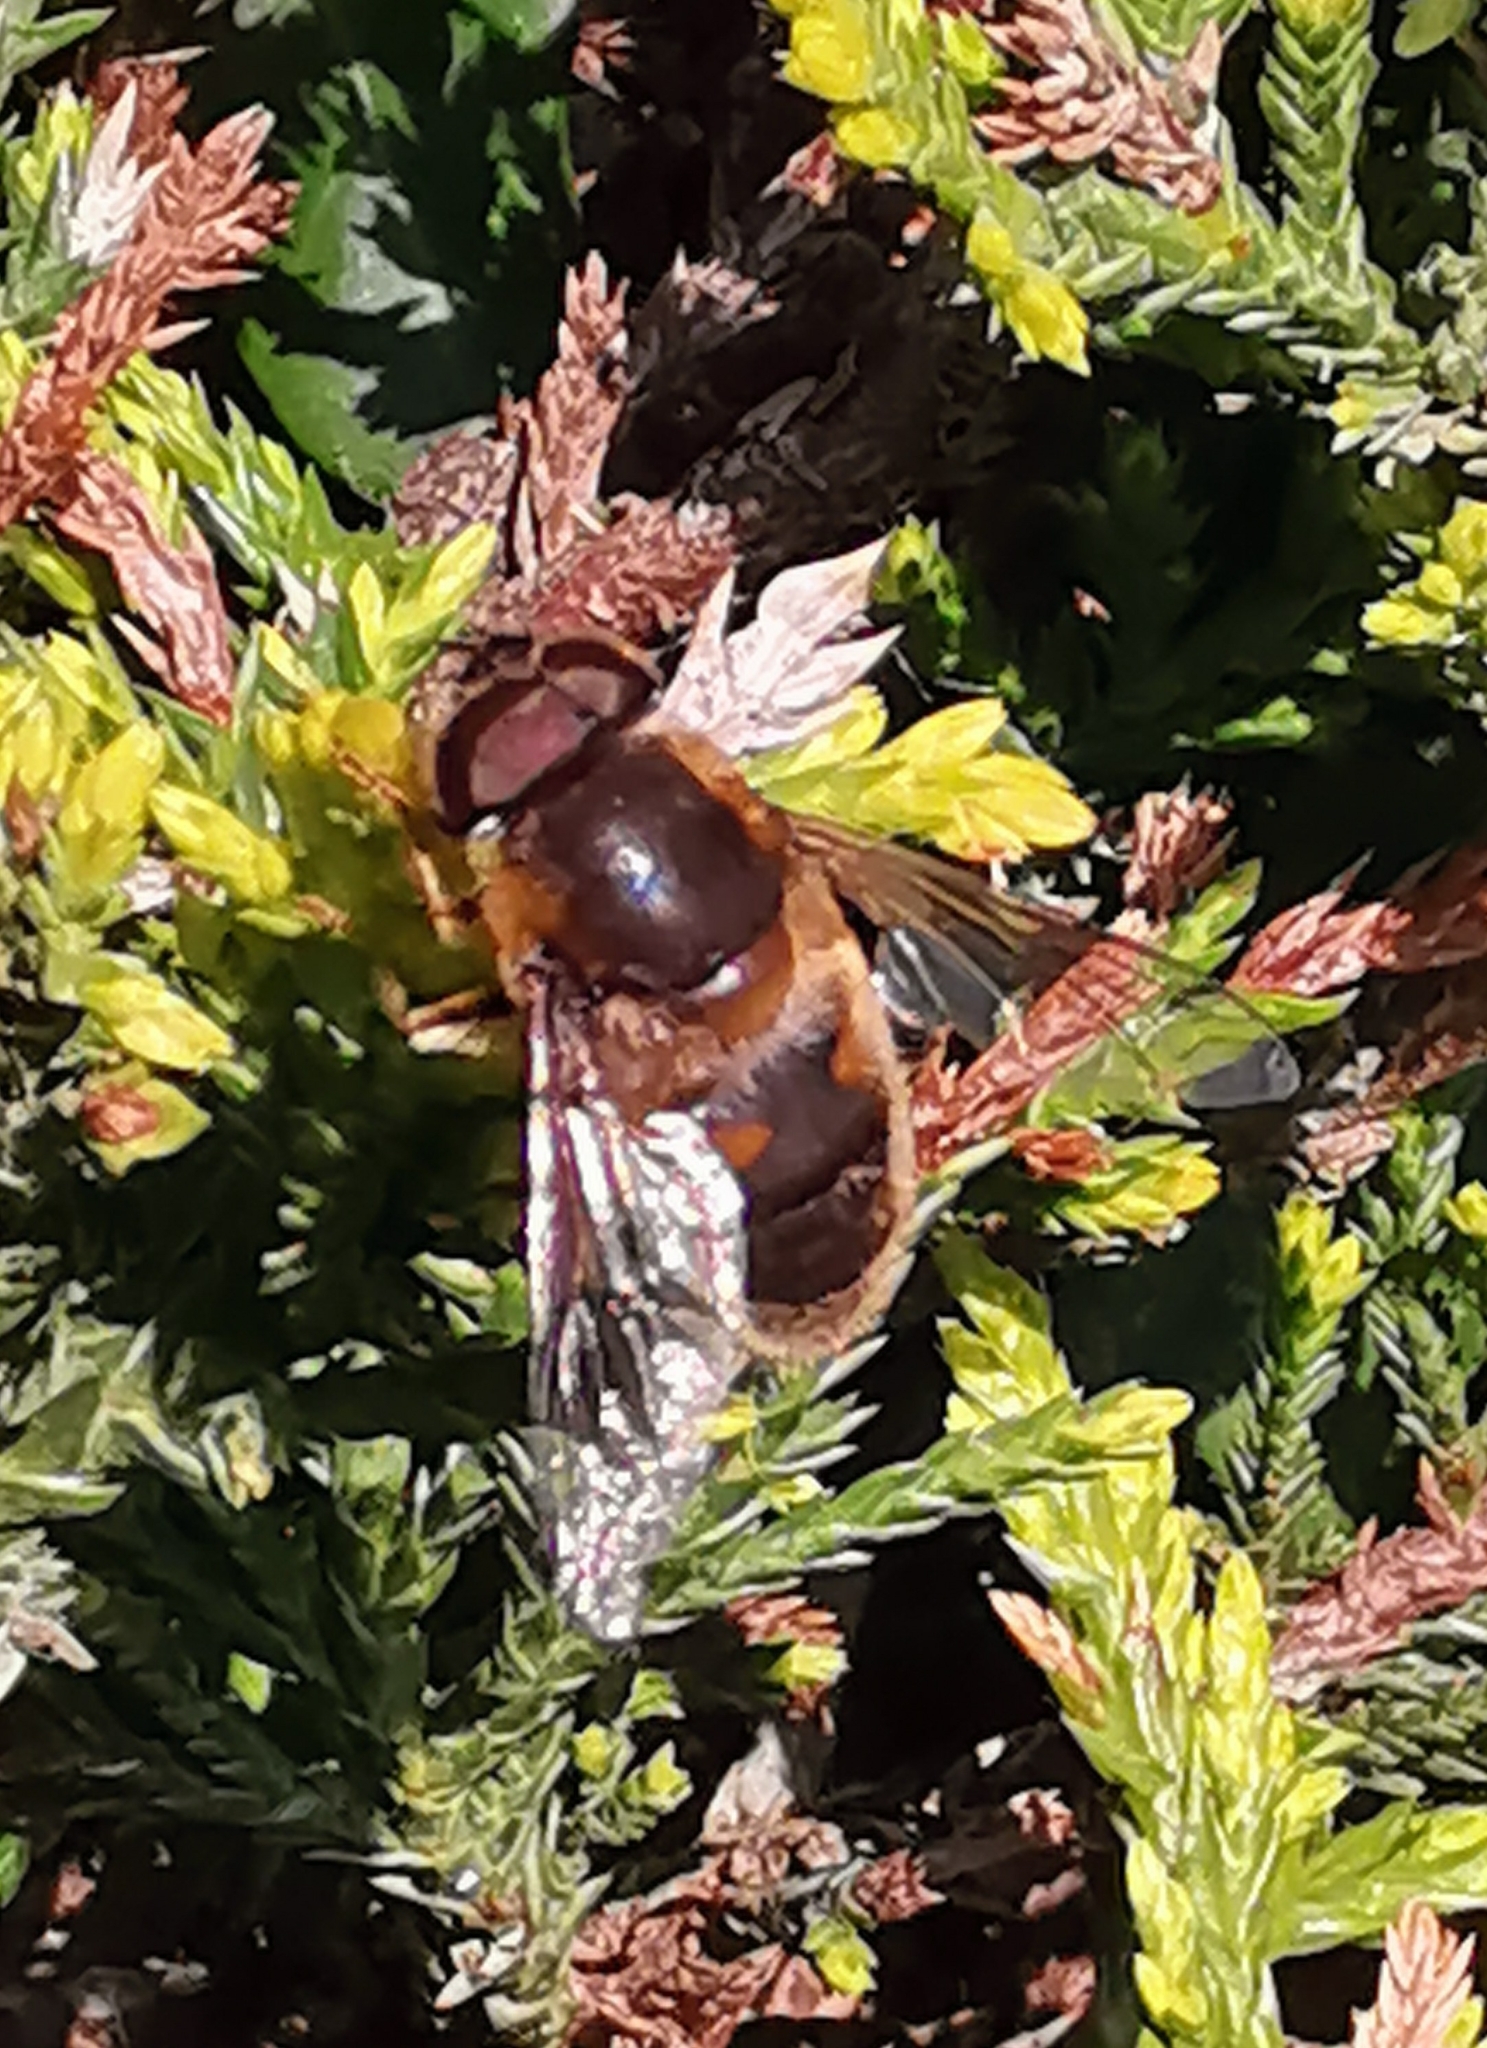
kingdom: Animalia
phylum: Arthropoda
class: Insecta
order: Diptera
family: Syrphidae
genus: Eristalis
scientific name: Eristalis pertinax
